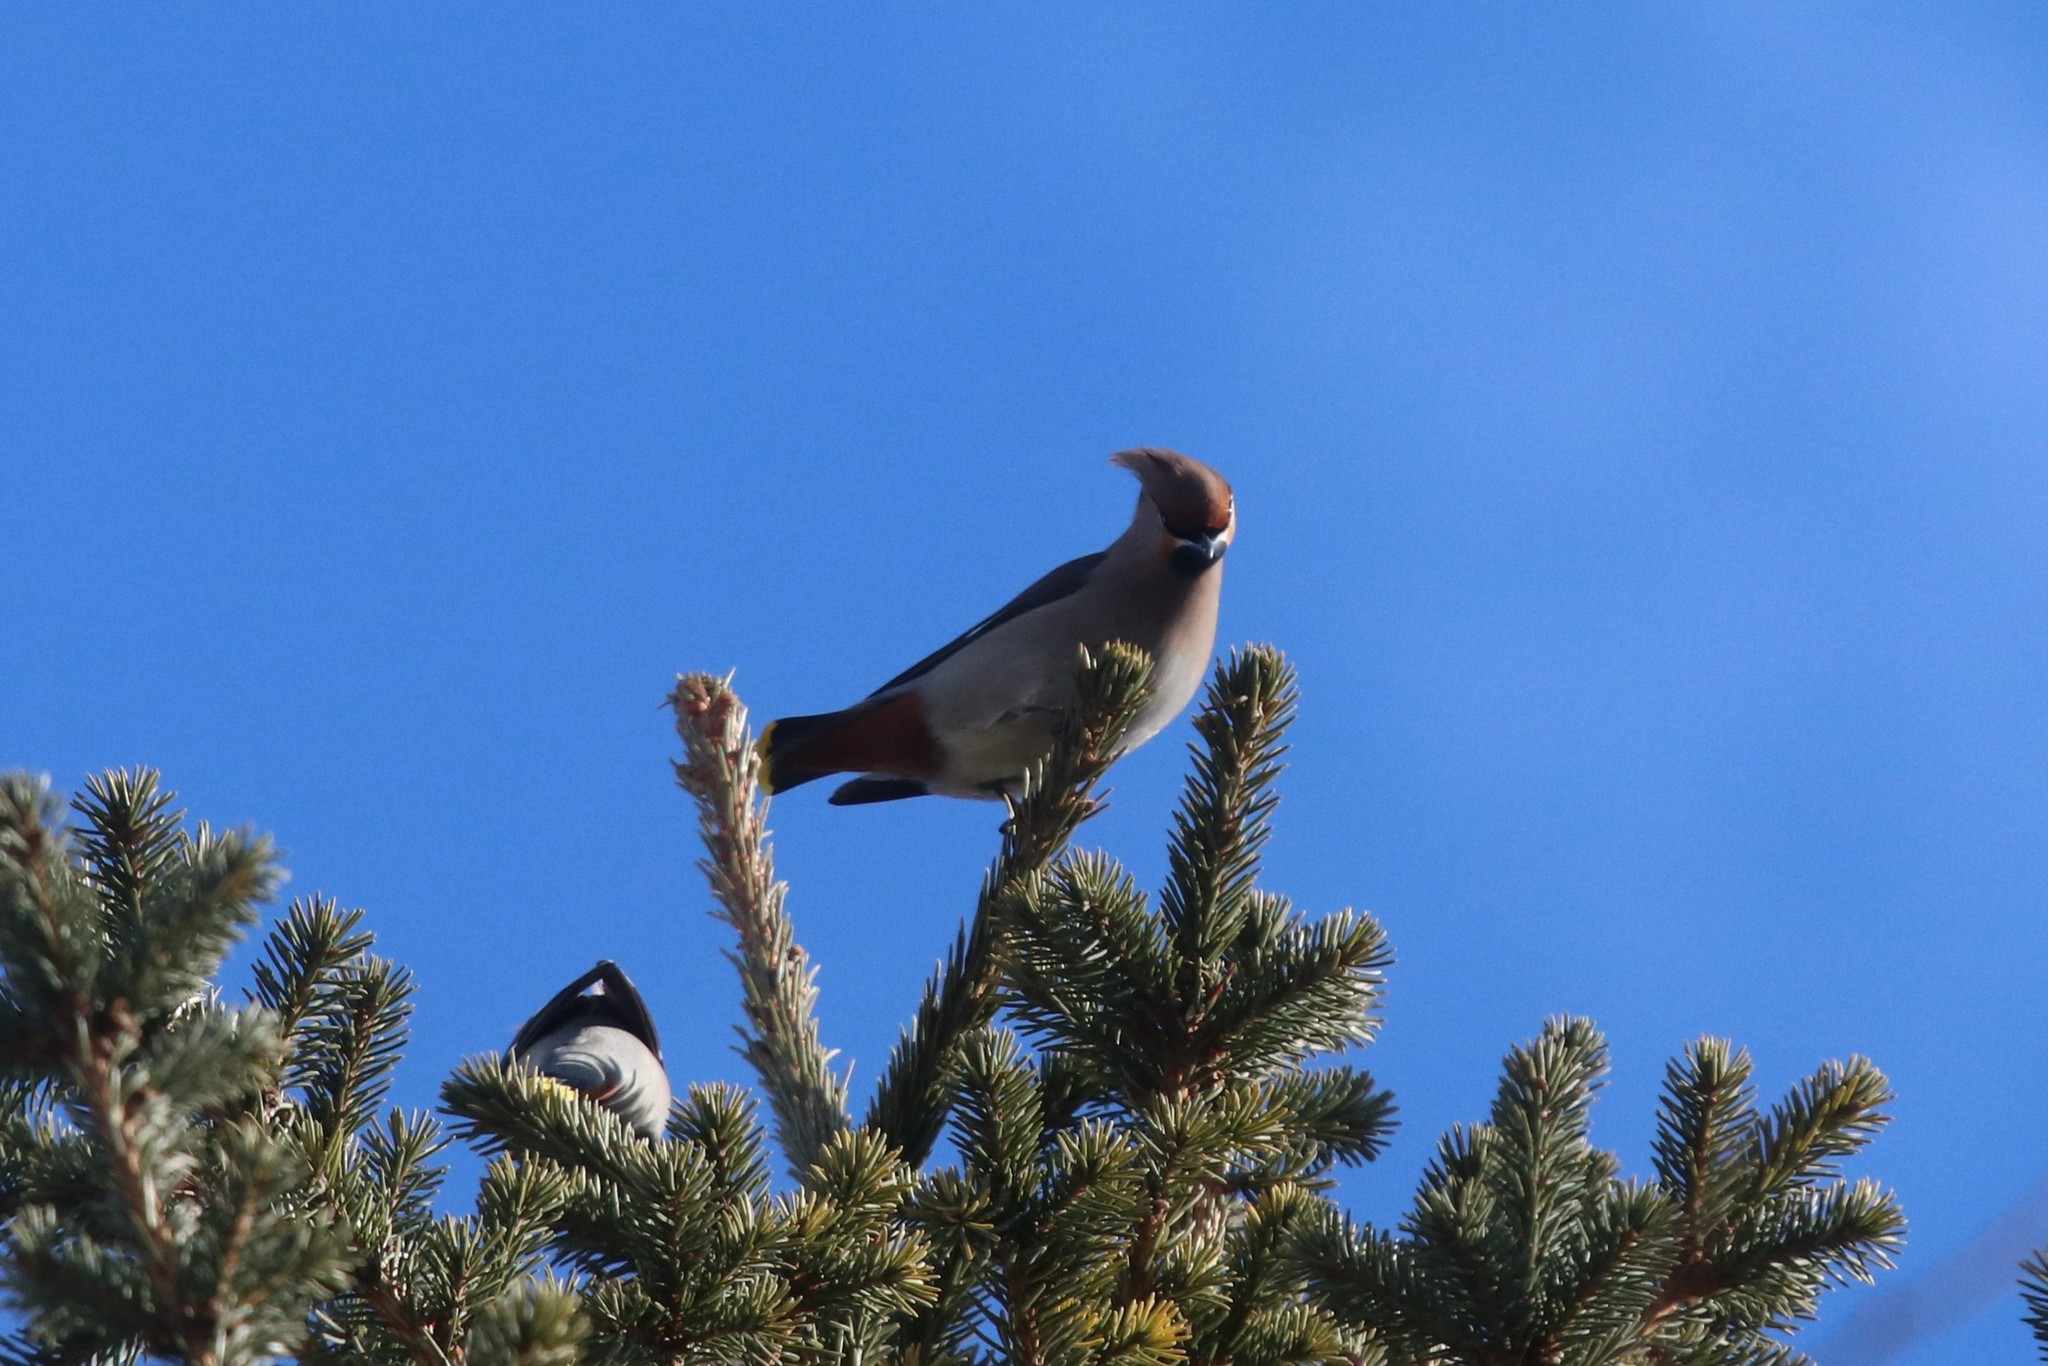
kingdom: Animalia
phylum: Chordata
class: Aves
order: Passeriformes
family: Bombycillidae
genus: Bombycilla
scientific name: Bombycilla garrulus
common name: Bohemian waxwing
